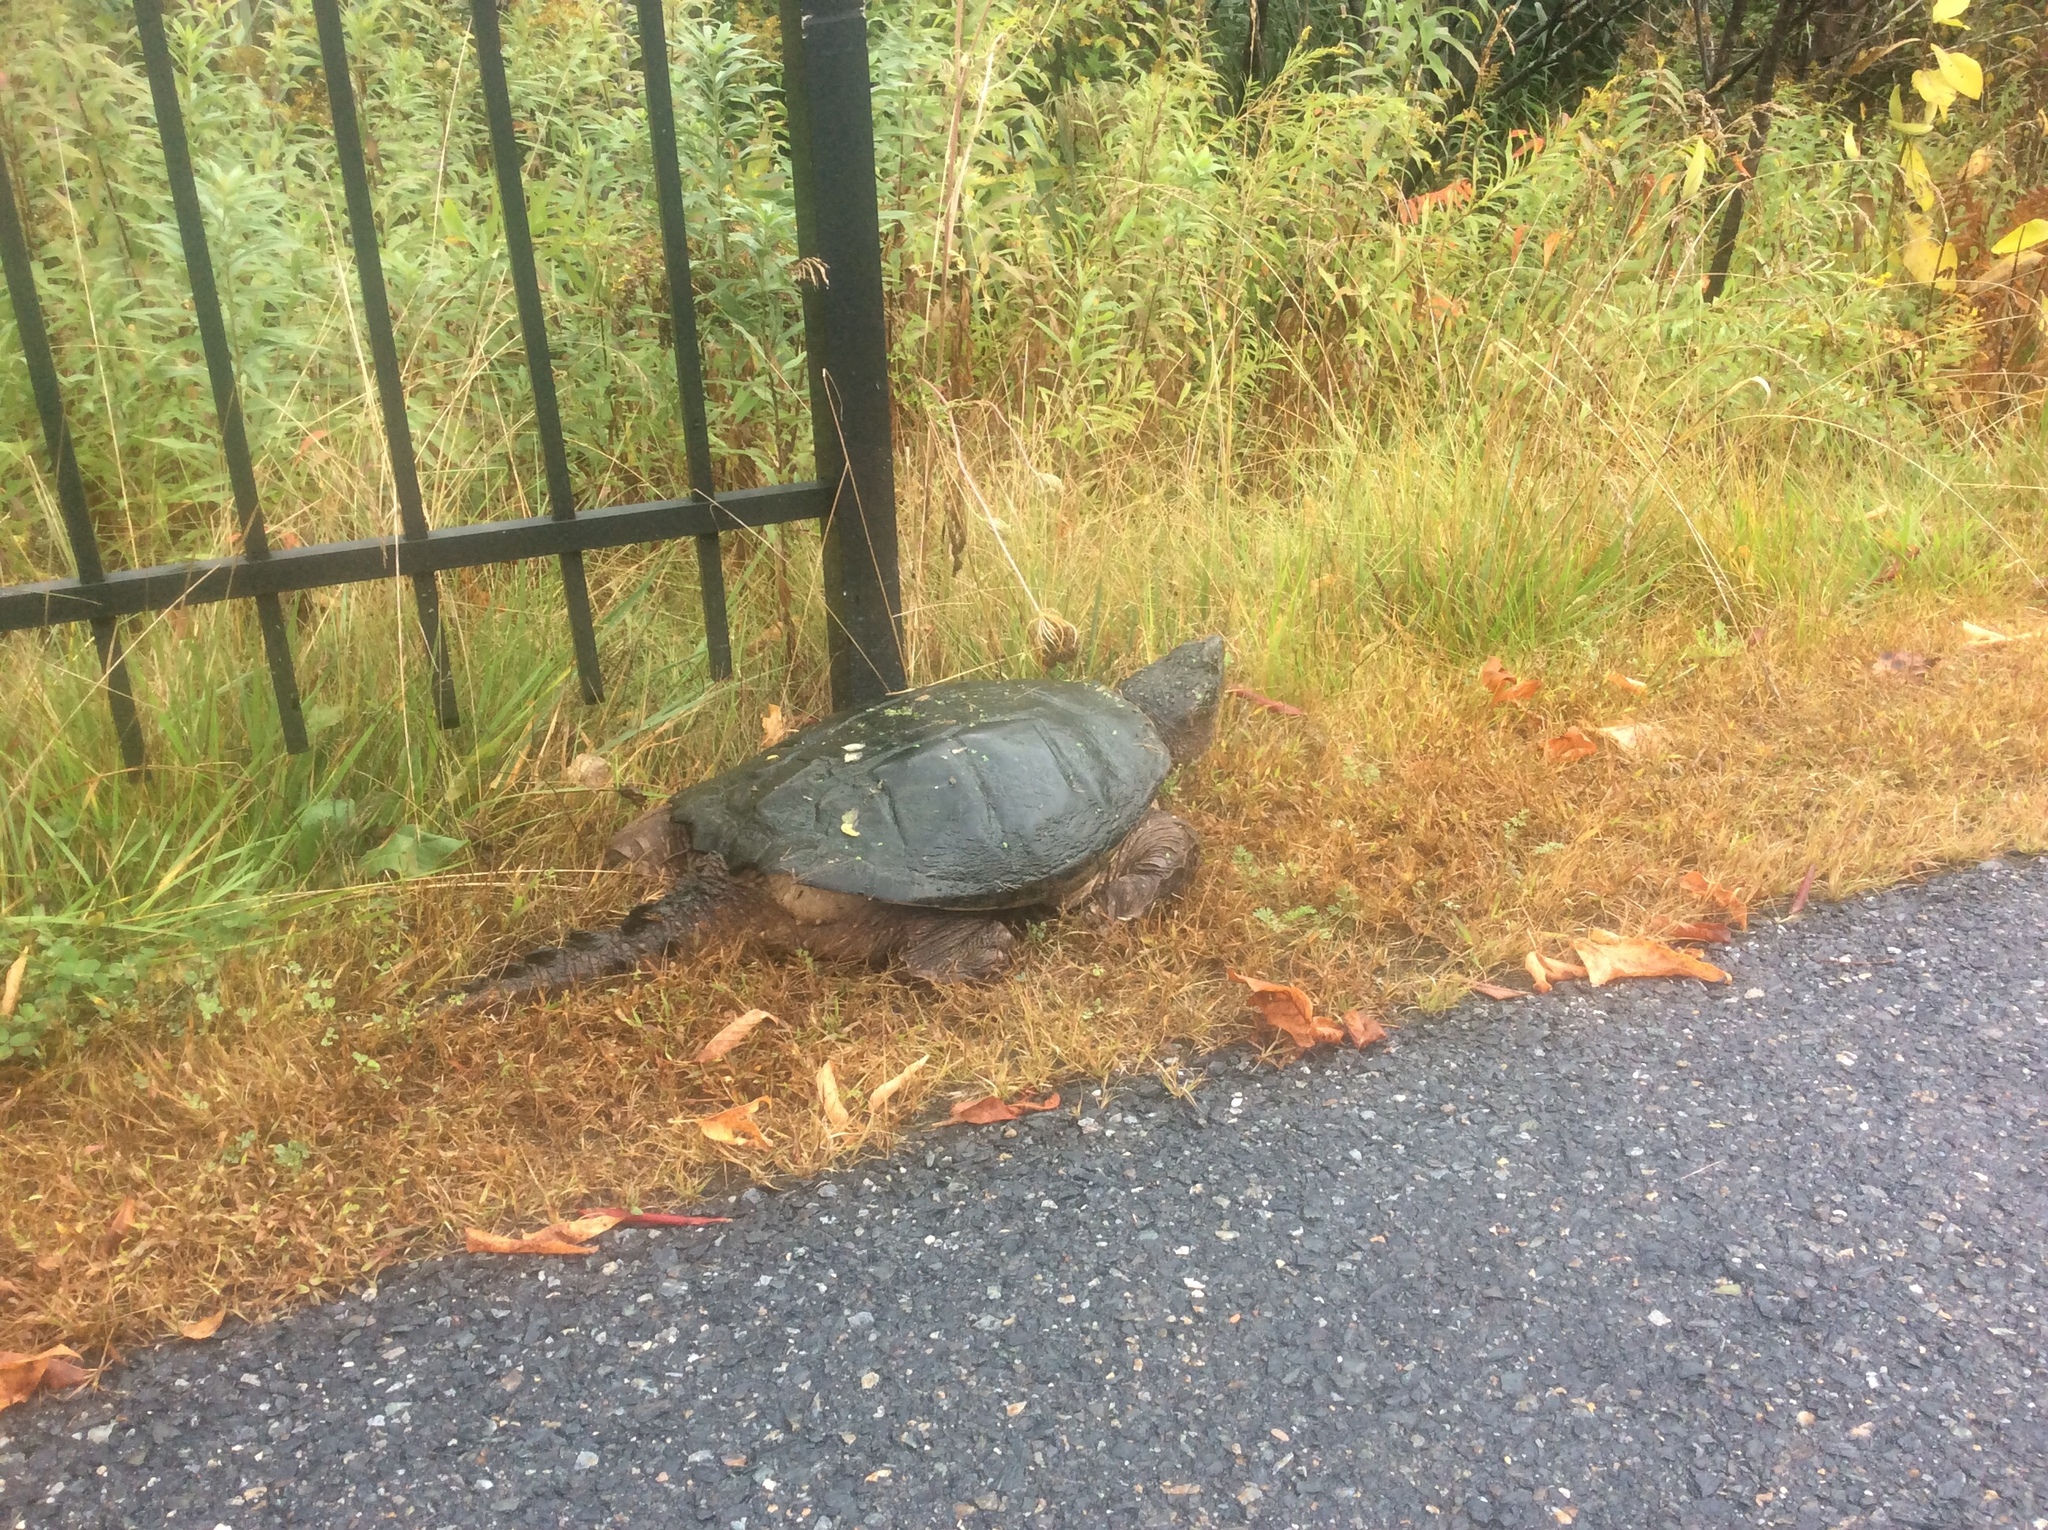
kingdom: Animalia
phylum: Chordata
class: Testudines
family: Chelydridae
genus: Chelydra
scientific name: Chelydra serpentina
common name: Common snapping turtle
